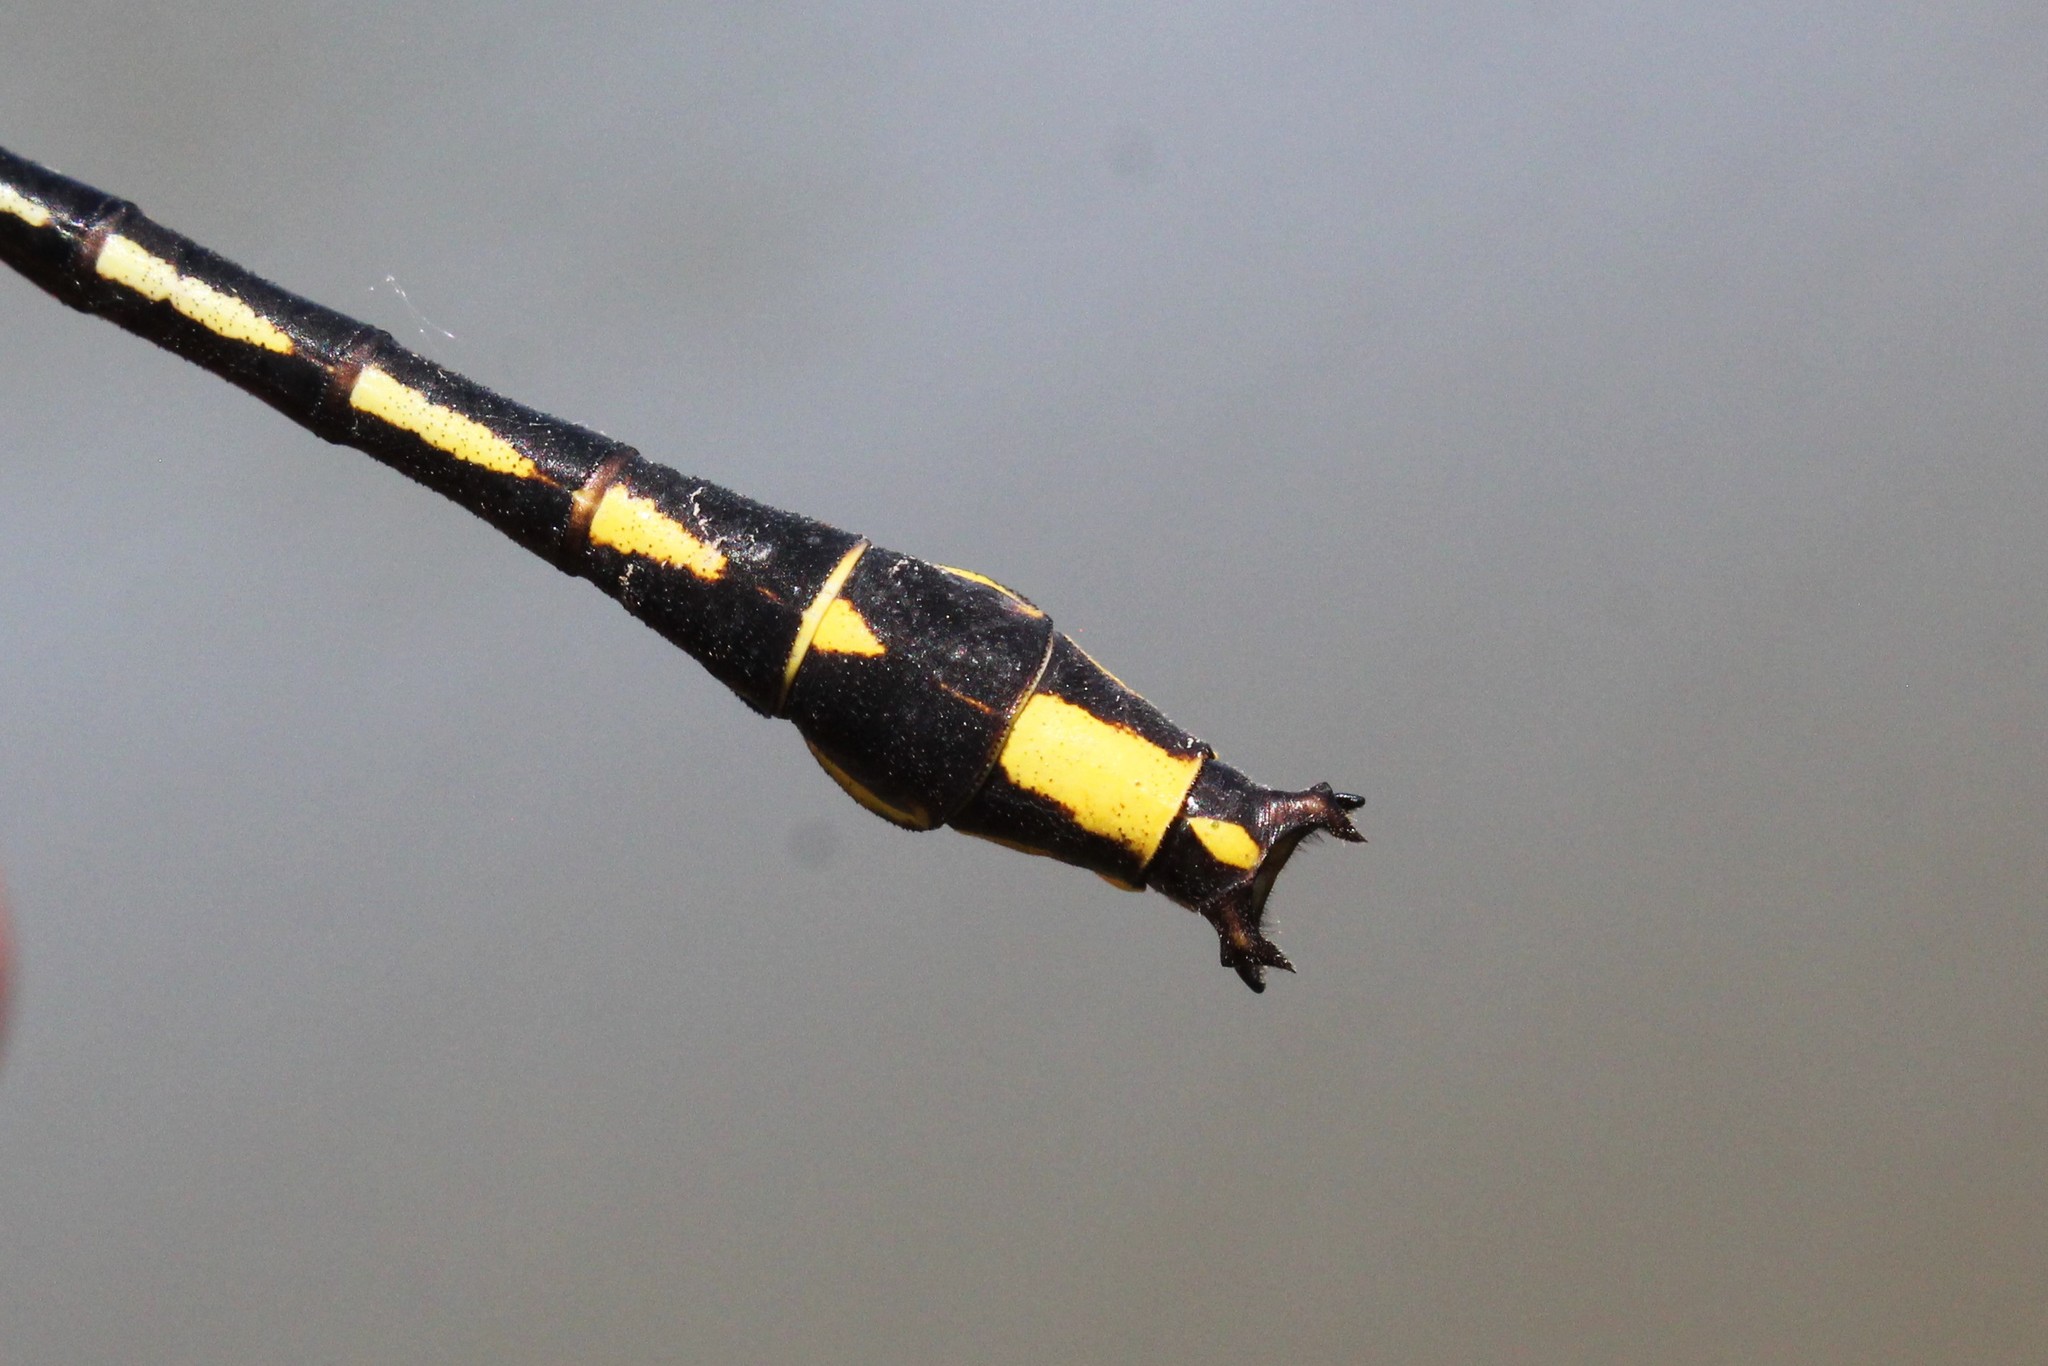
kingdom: Animalia
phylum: Arthropoda
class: Insecta
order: Odonata
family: Gomphidae
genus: Phanogomphus
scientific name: Phanogomphus graslinellus
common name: Pronghorn clubtail
